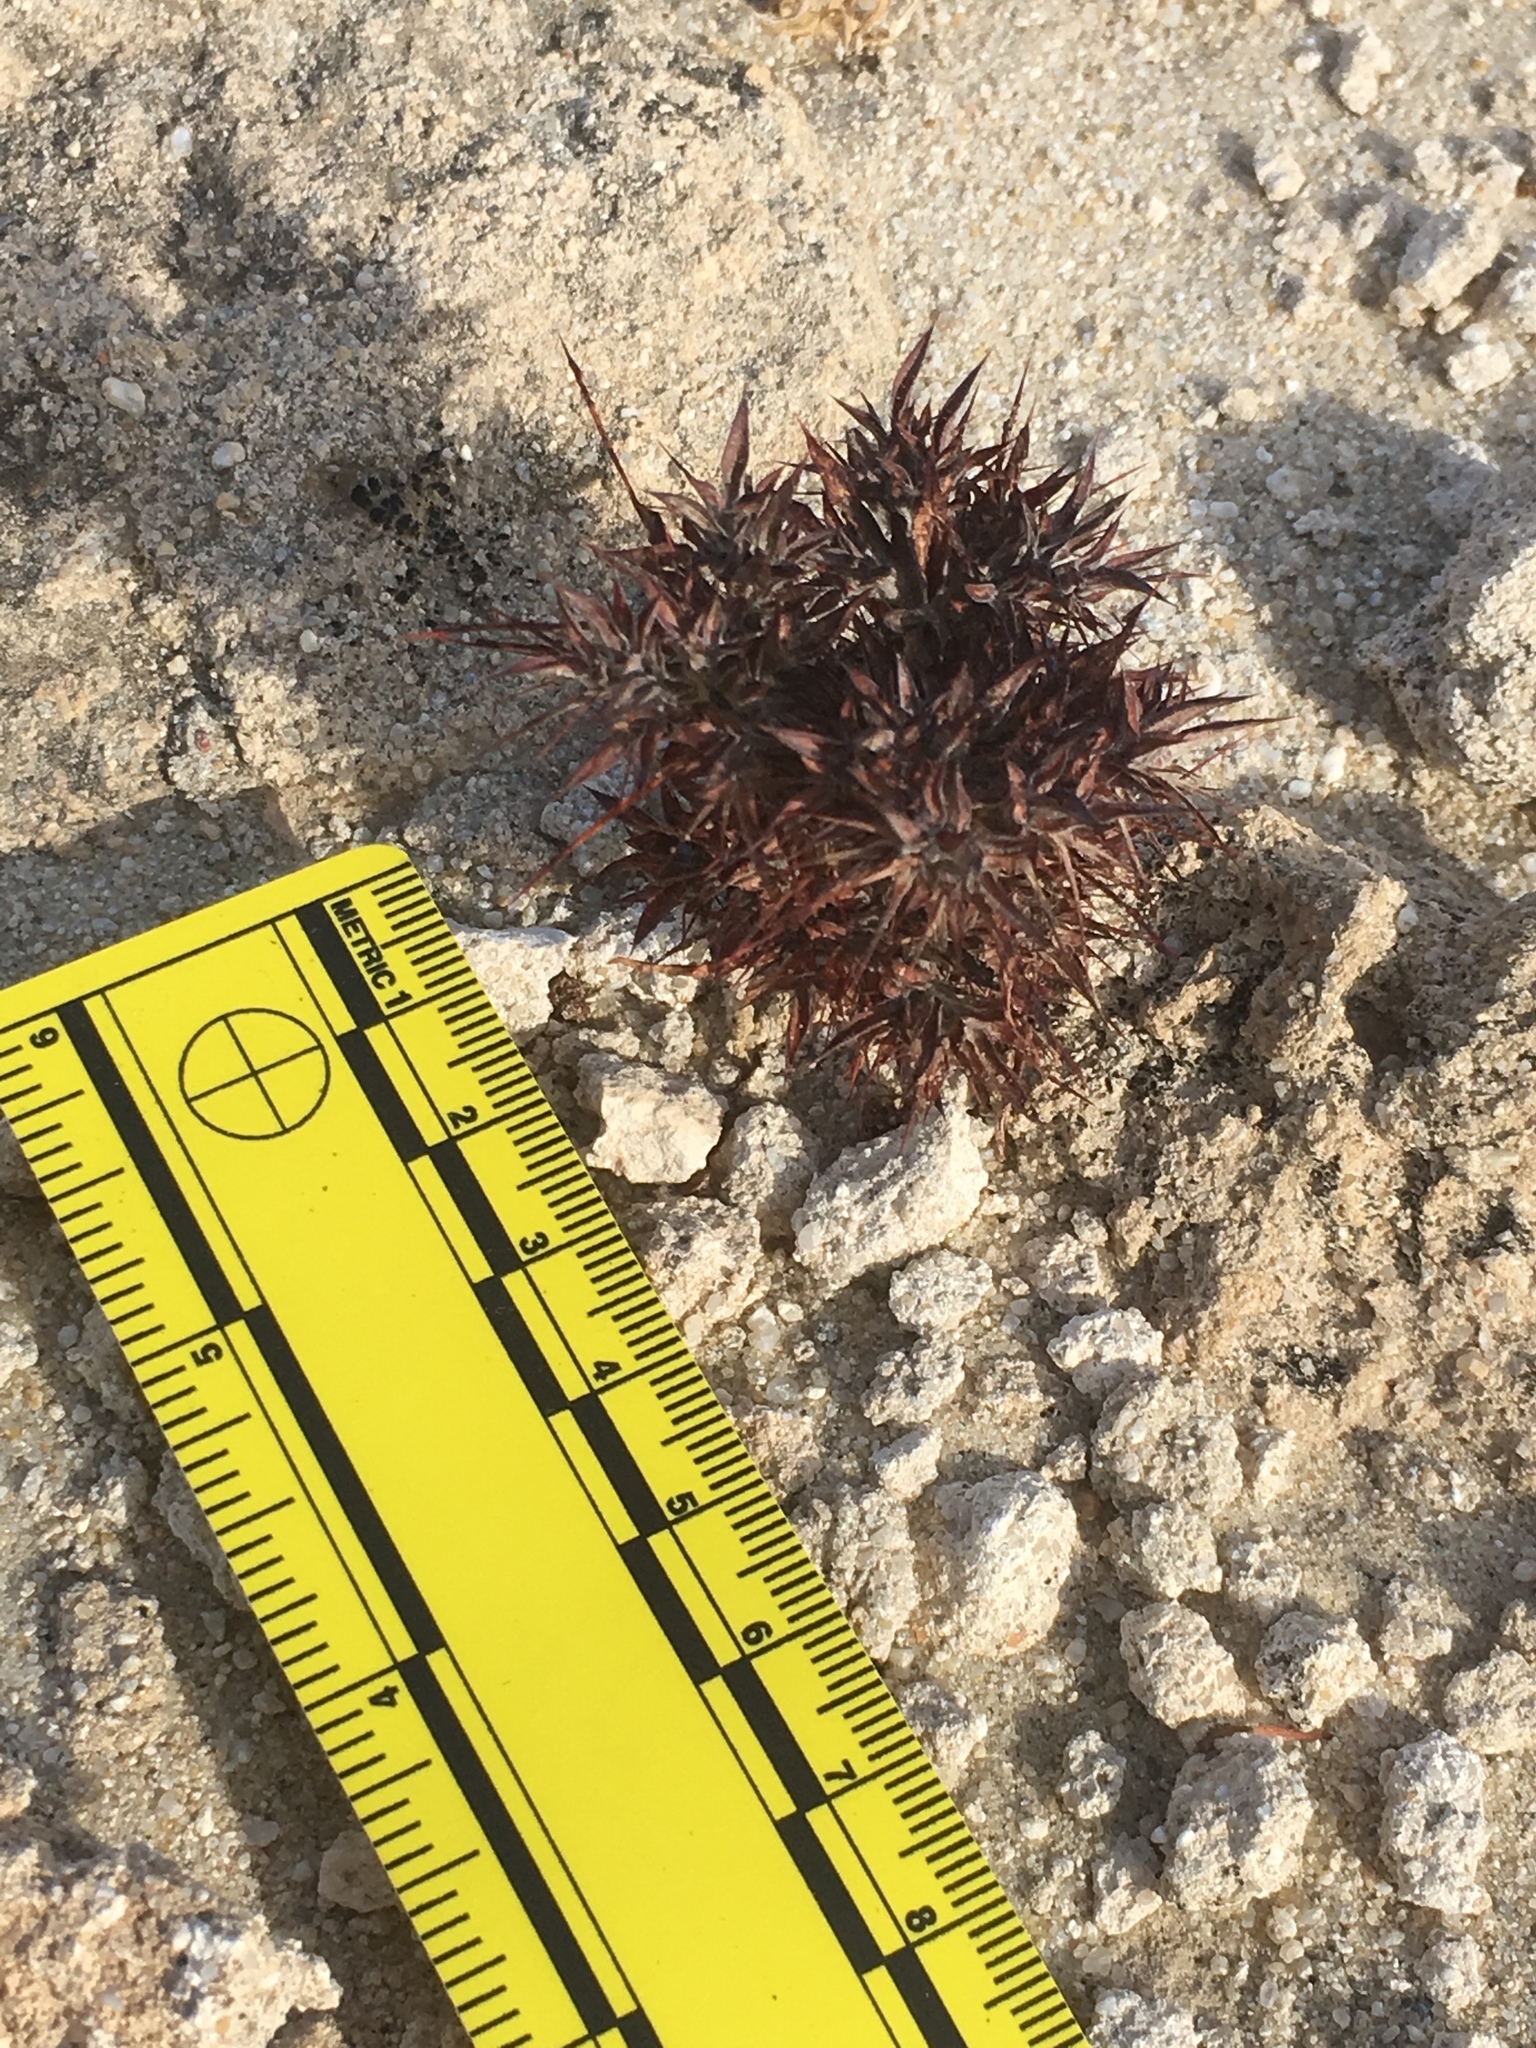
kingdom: Plantae
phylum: Tracheophyta
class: Magnoliopsida
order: Caryophyllales
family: Polygonaceae
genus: Chorizanthe
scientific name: Chorizanthe rigida
